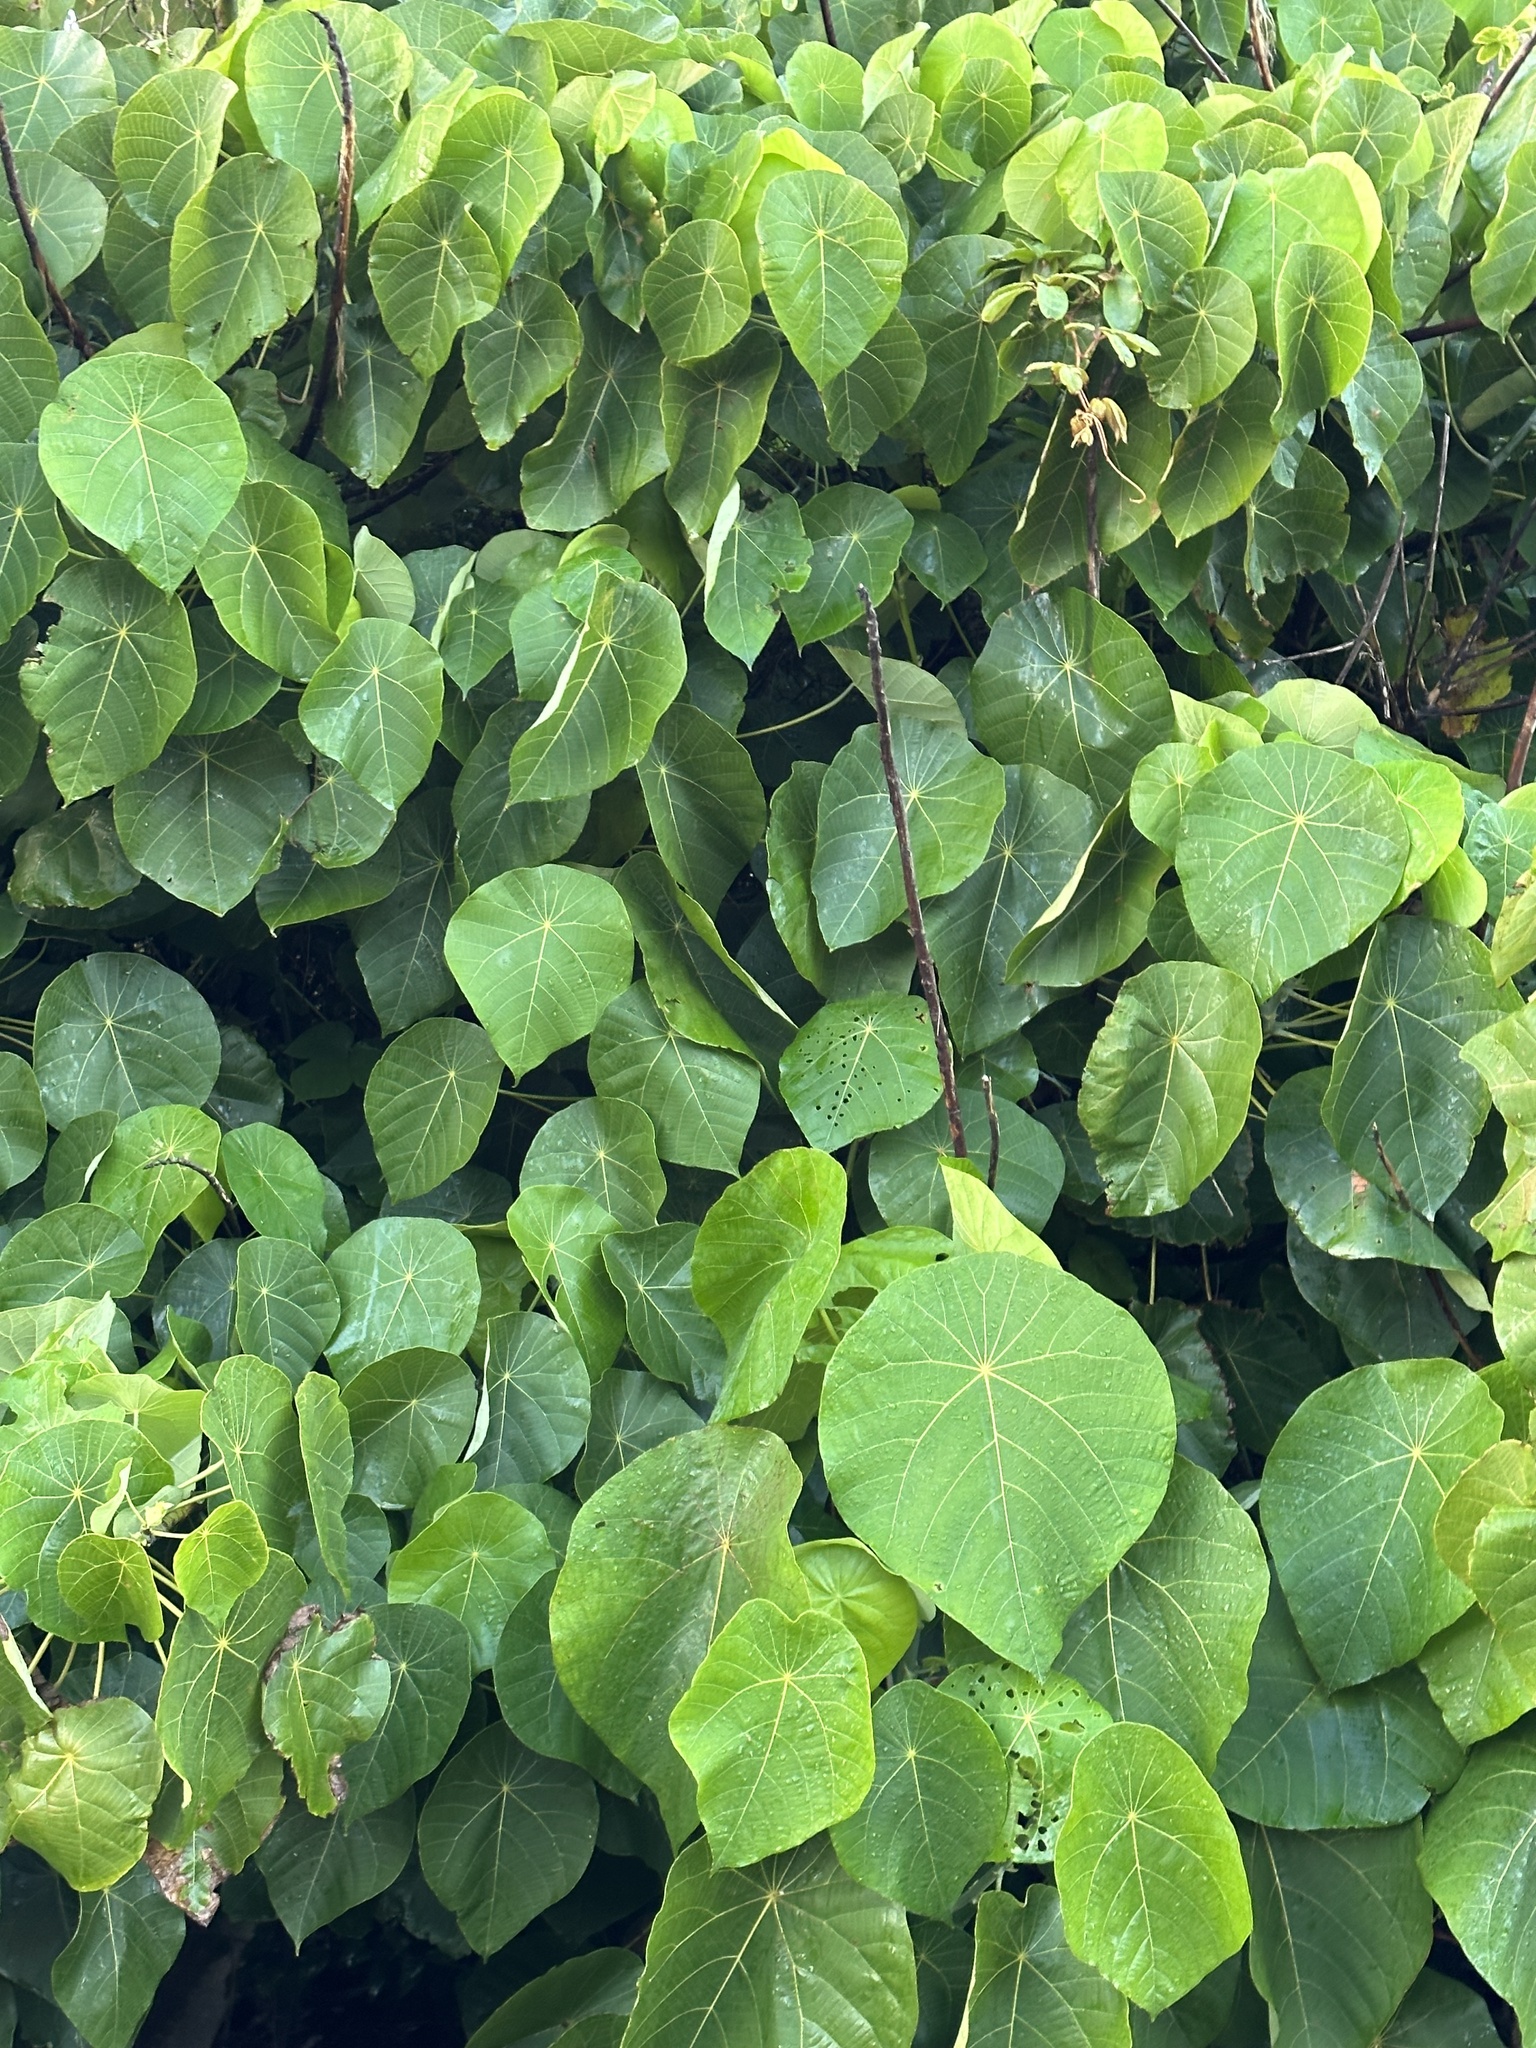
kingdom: Plantae
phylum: Tracheophyta
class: Magnoliopsida
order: Malpighiales
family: Euphorbiaceae
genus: Macaranga
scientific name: Macaranga tanarius
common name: Parasol leaf tree
